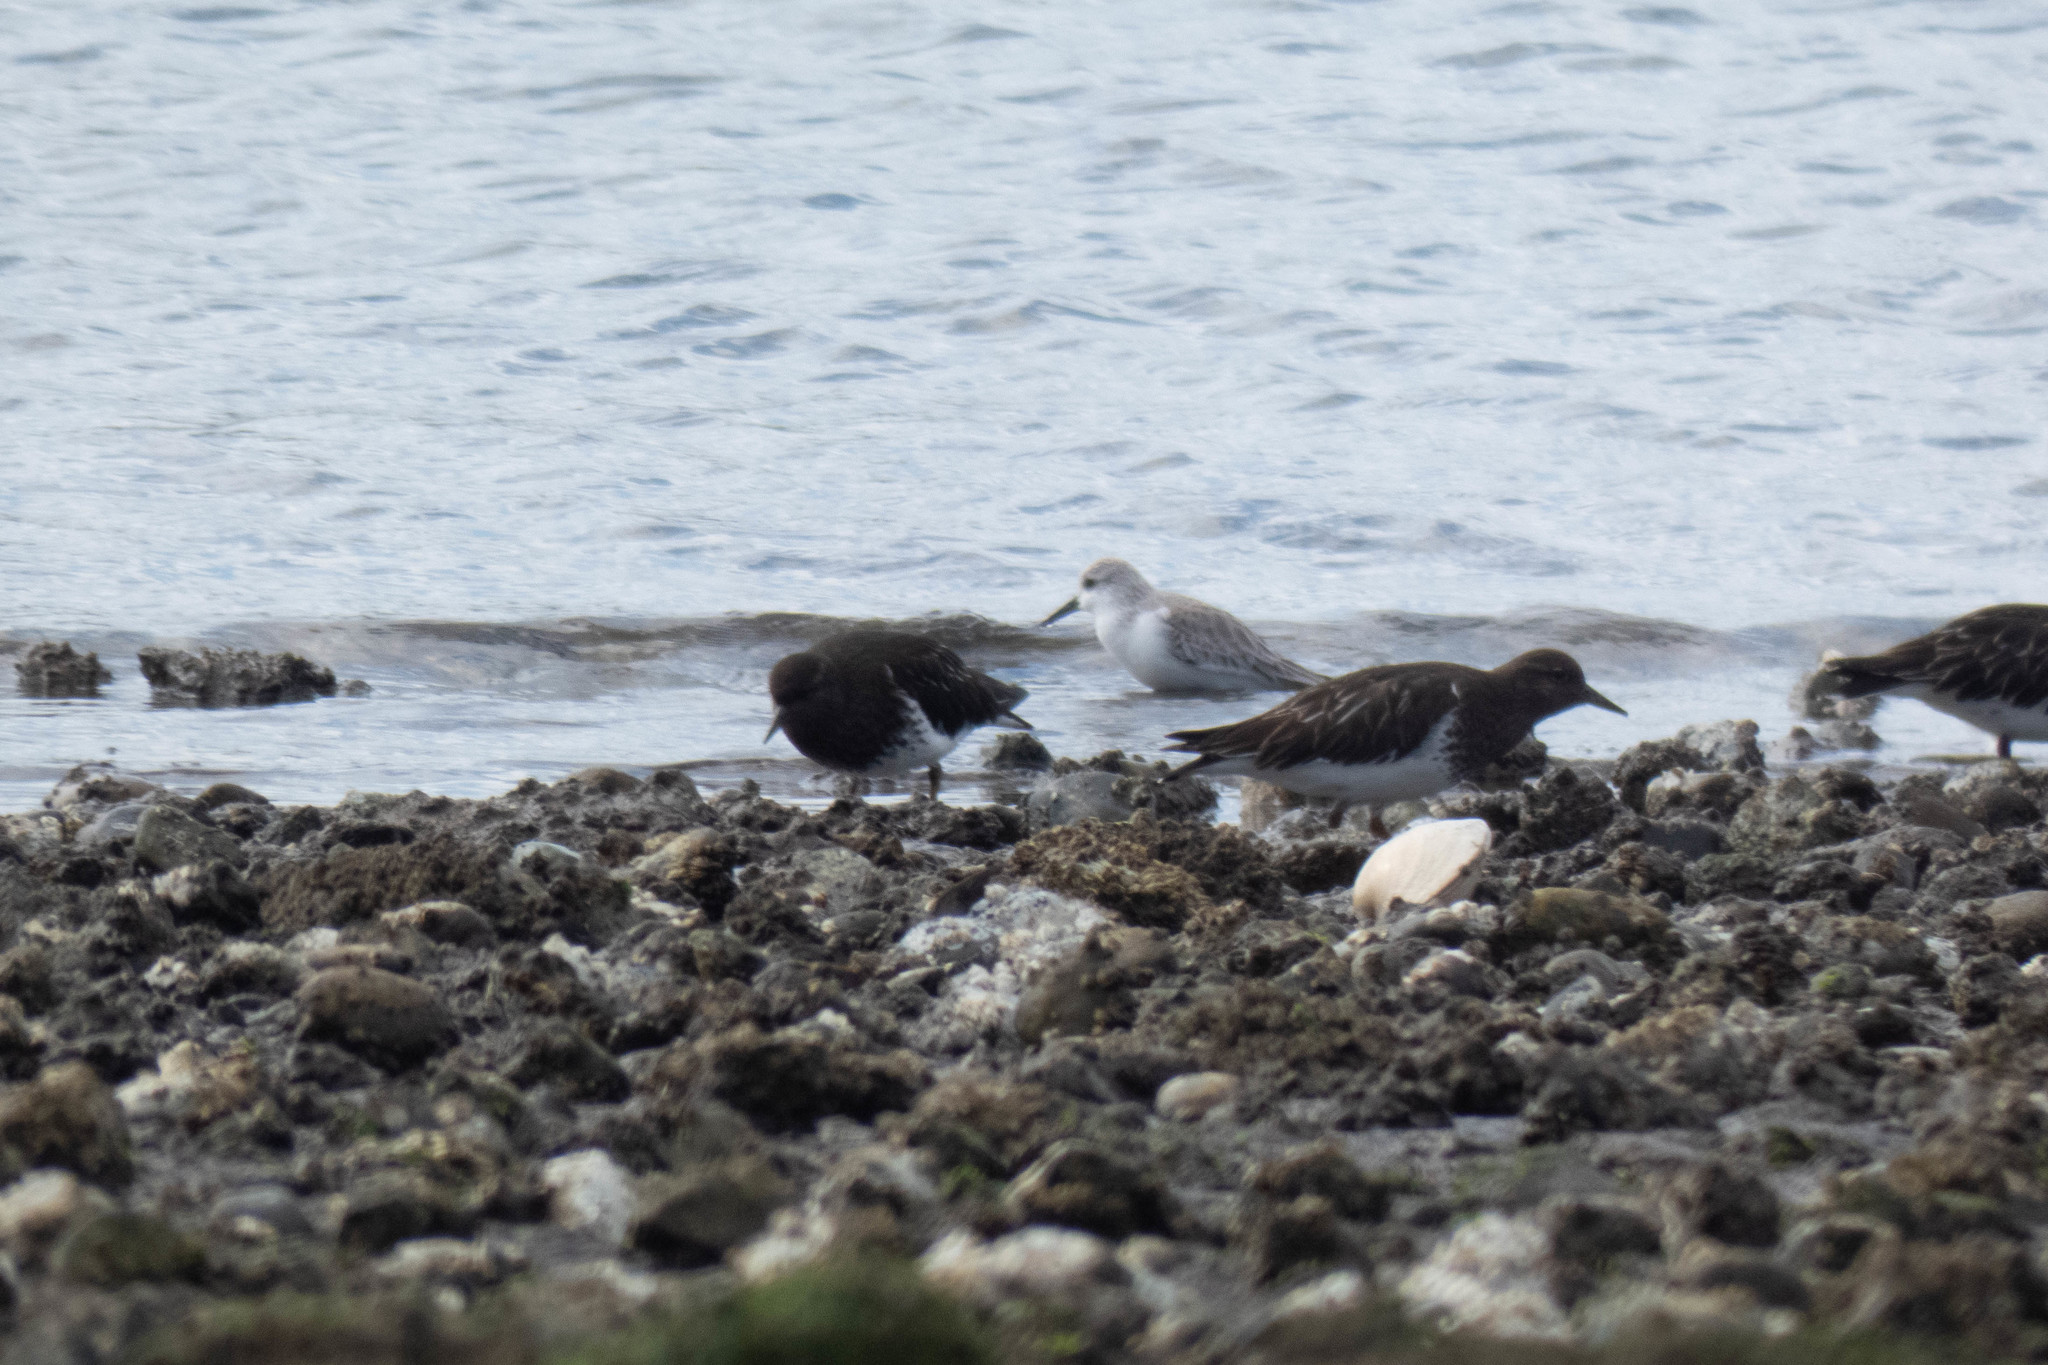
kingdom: Animalia
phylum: Chordata
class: Aves
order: Charadriiformes
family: Scolopacidae
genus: Calidris
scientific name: Calidris alba
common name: Sanderling
